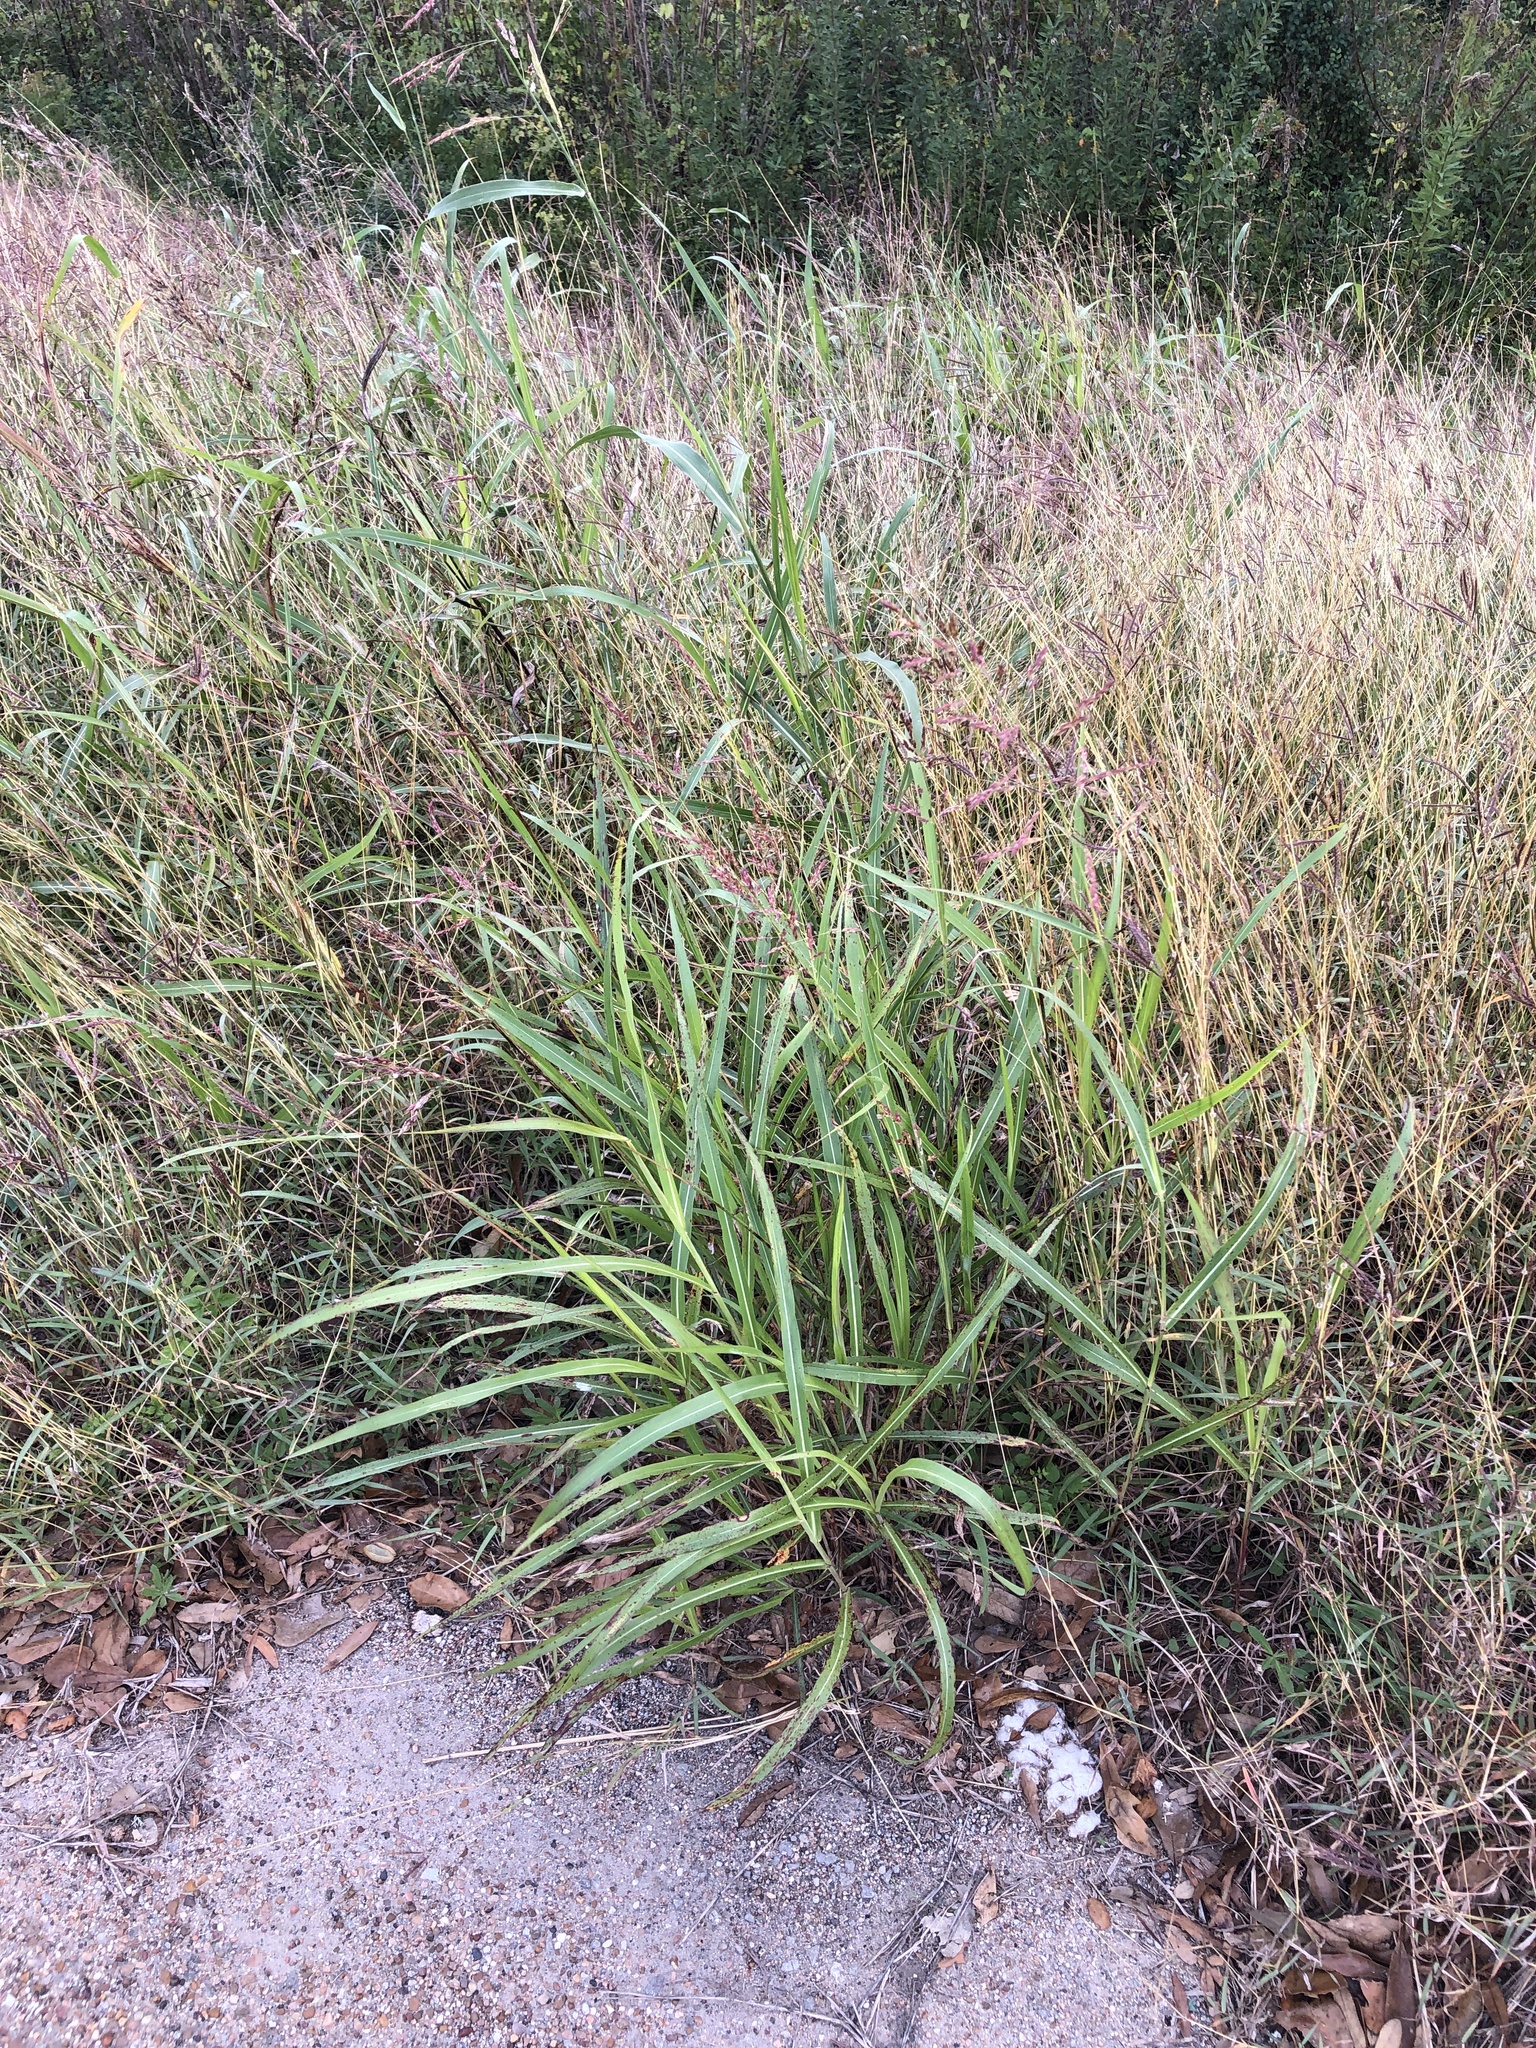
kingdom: Plantae
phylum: Tracheophyta
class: Liliopsida
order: Poales
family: Poaceae
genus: Sorghum
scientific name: Sorghum halepense
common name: Johnson-grass
